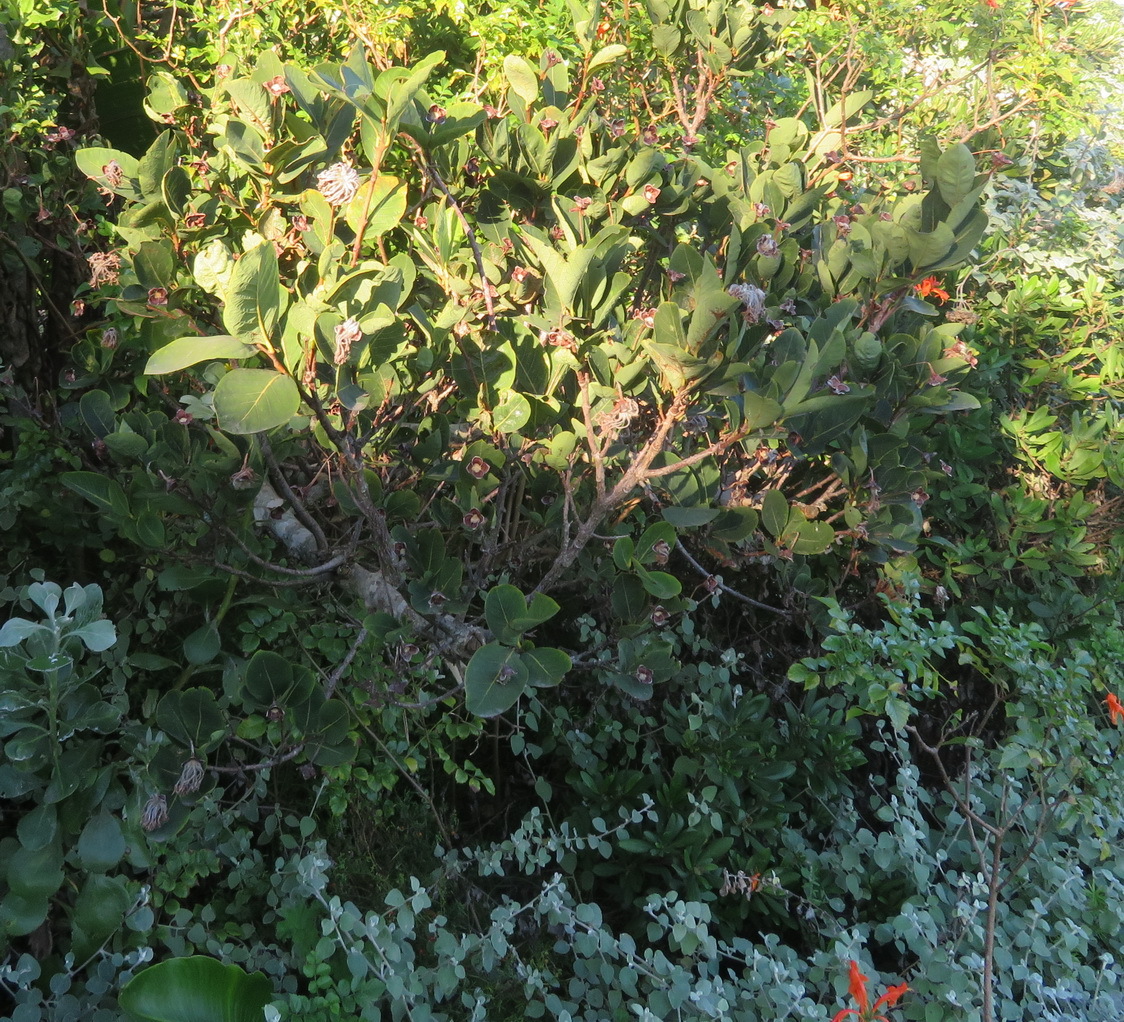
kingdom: Plantae
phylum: Tracheophyta
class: Magnoliopsida
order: Malvales
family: Thymelaeaceae
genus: Dais
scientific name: Dais cotinifolia
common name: Pompon tree
